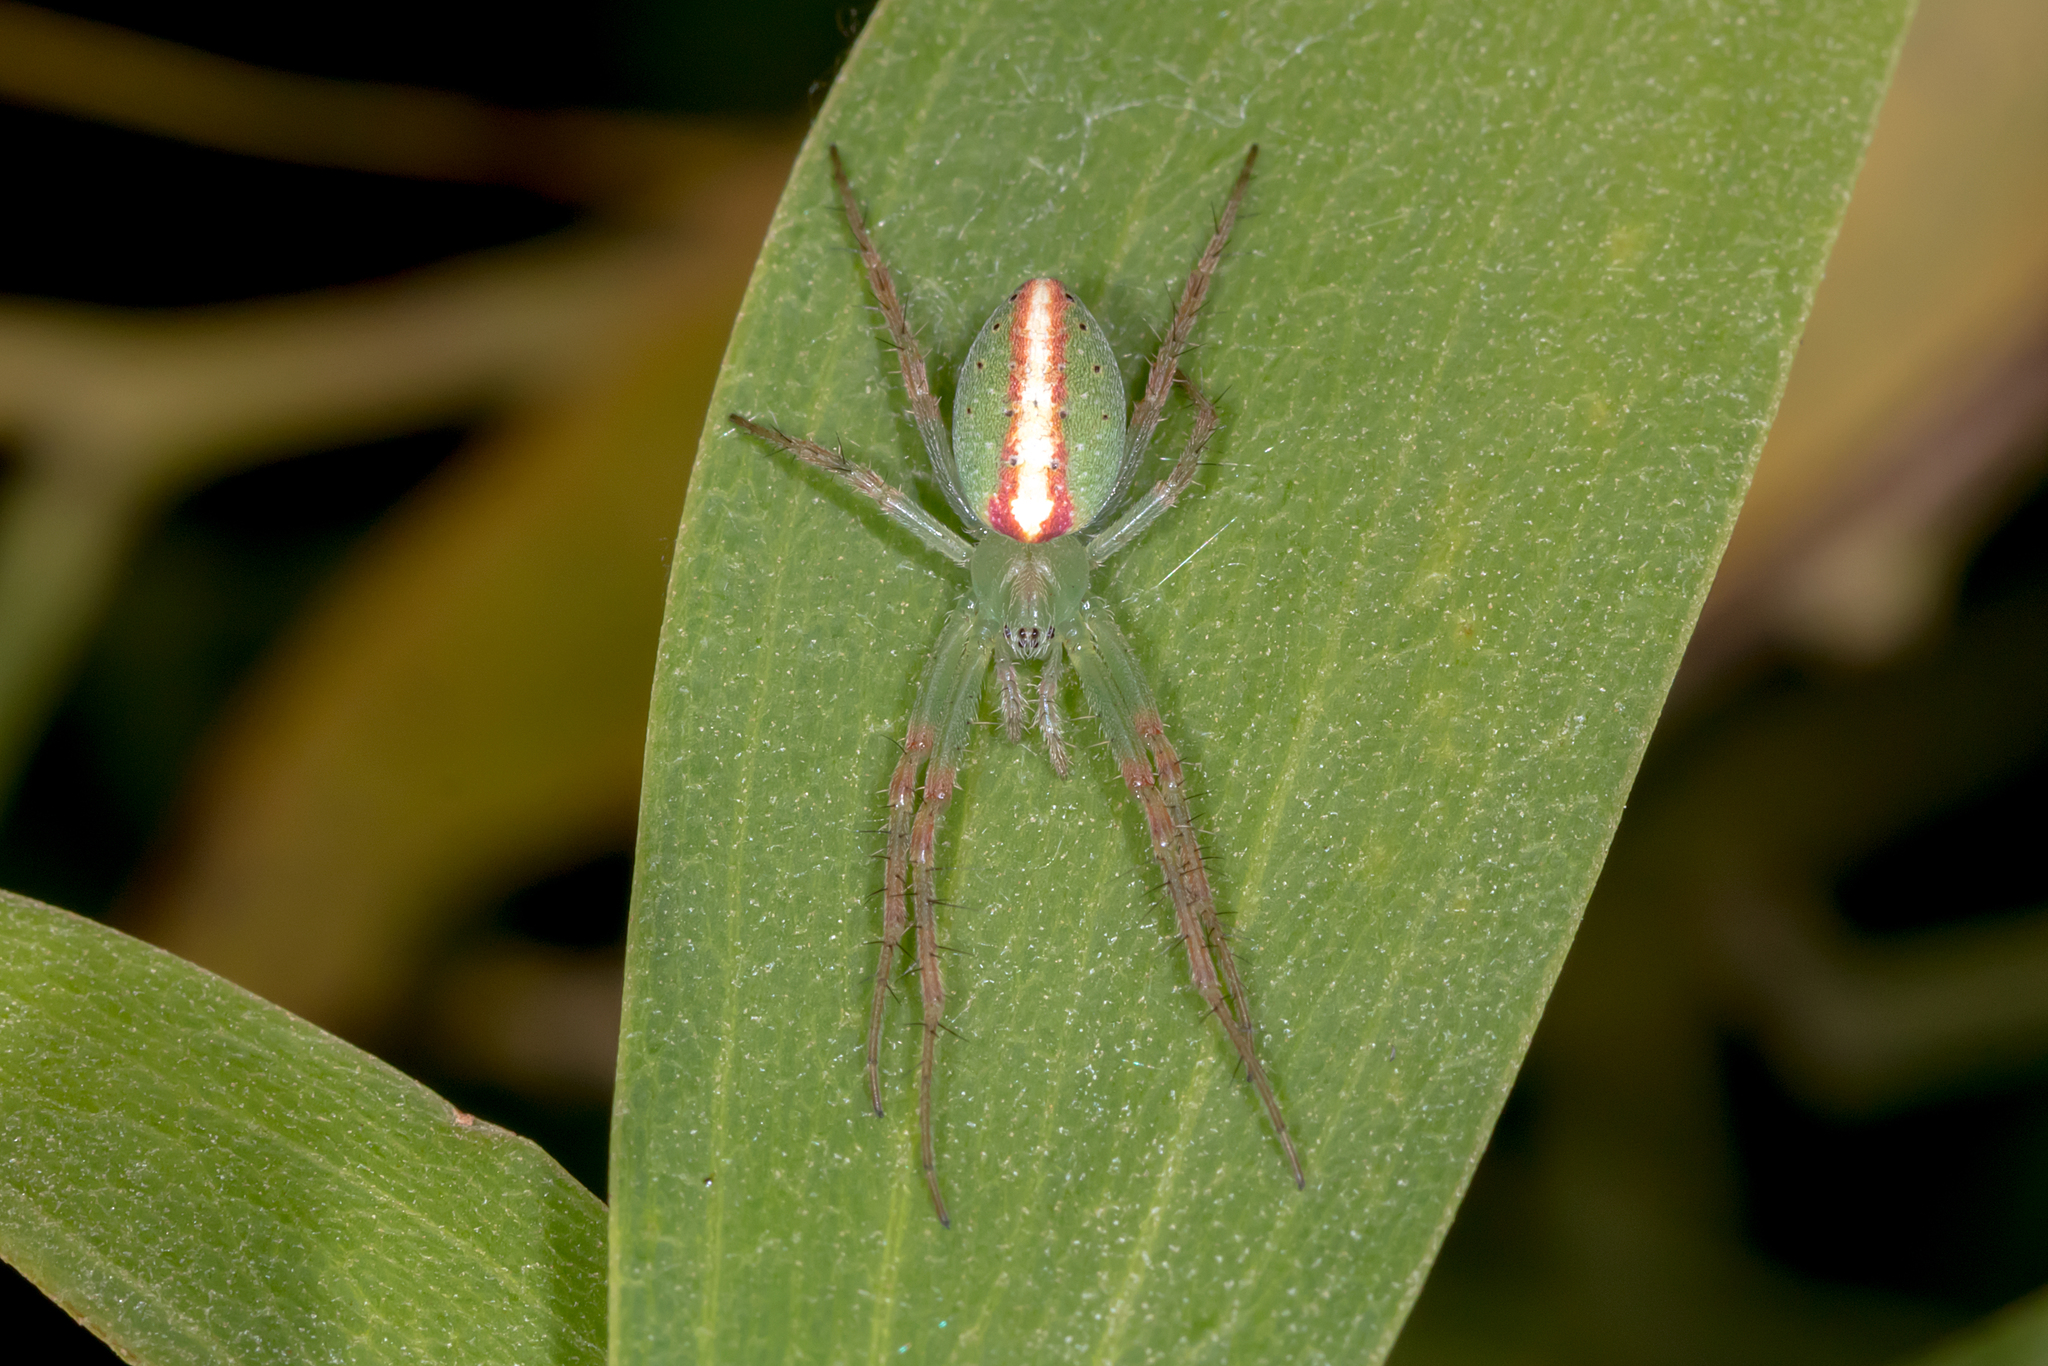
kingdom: Animalia
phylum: Arthropoda
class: Arachnida
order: Araneae
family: Araneidae
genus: Araneus
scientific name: Araneus talipedatus
